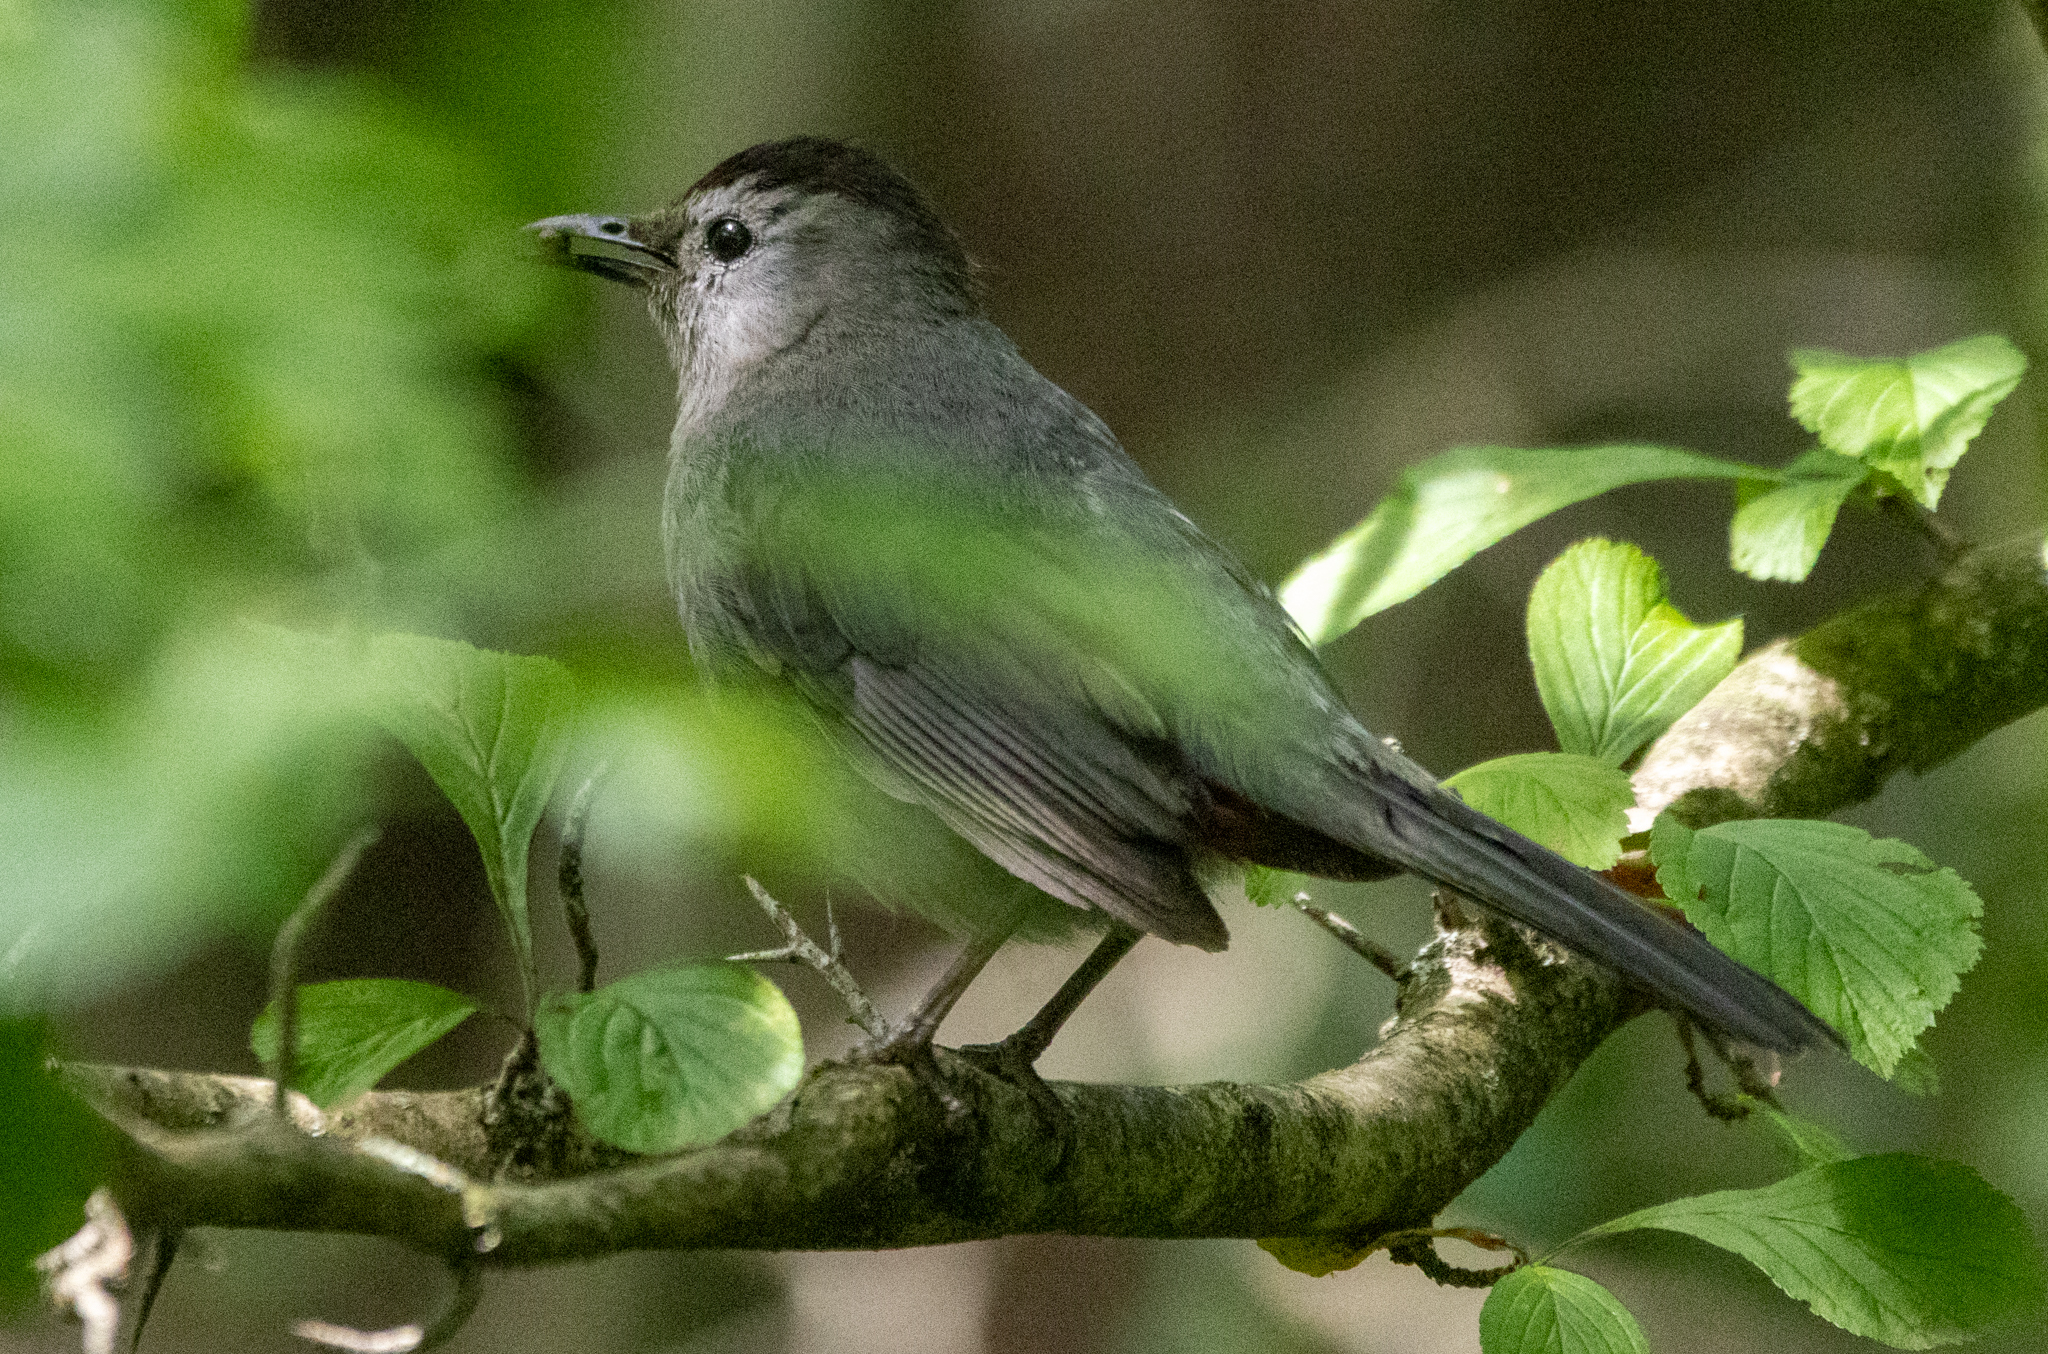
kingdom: Animalia
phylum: Chordata
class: Aves
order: Passeriformes
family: Mimidae
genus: Dumetella
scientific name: Dumetella carolinensis
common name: Gray catbird
